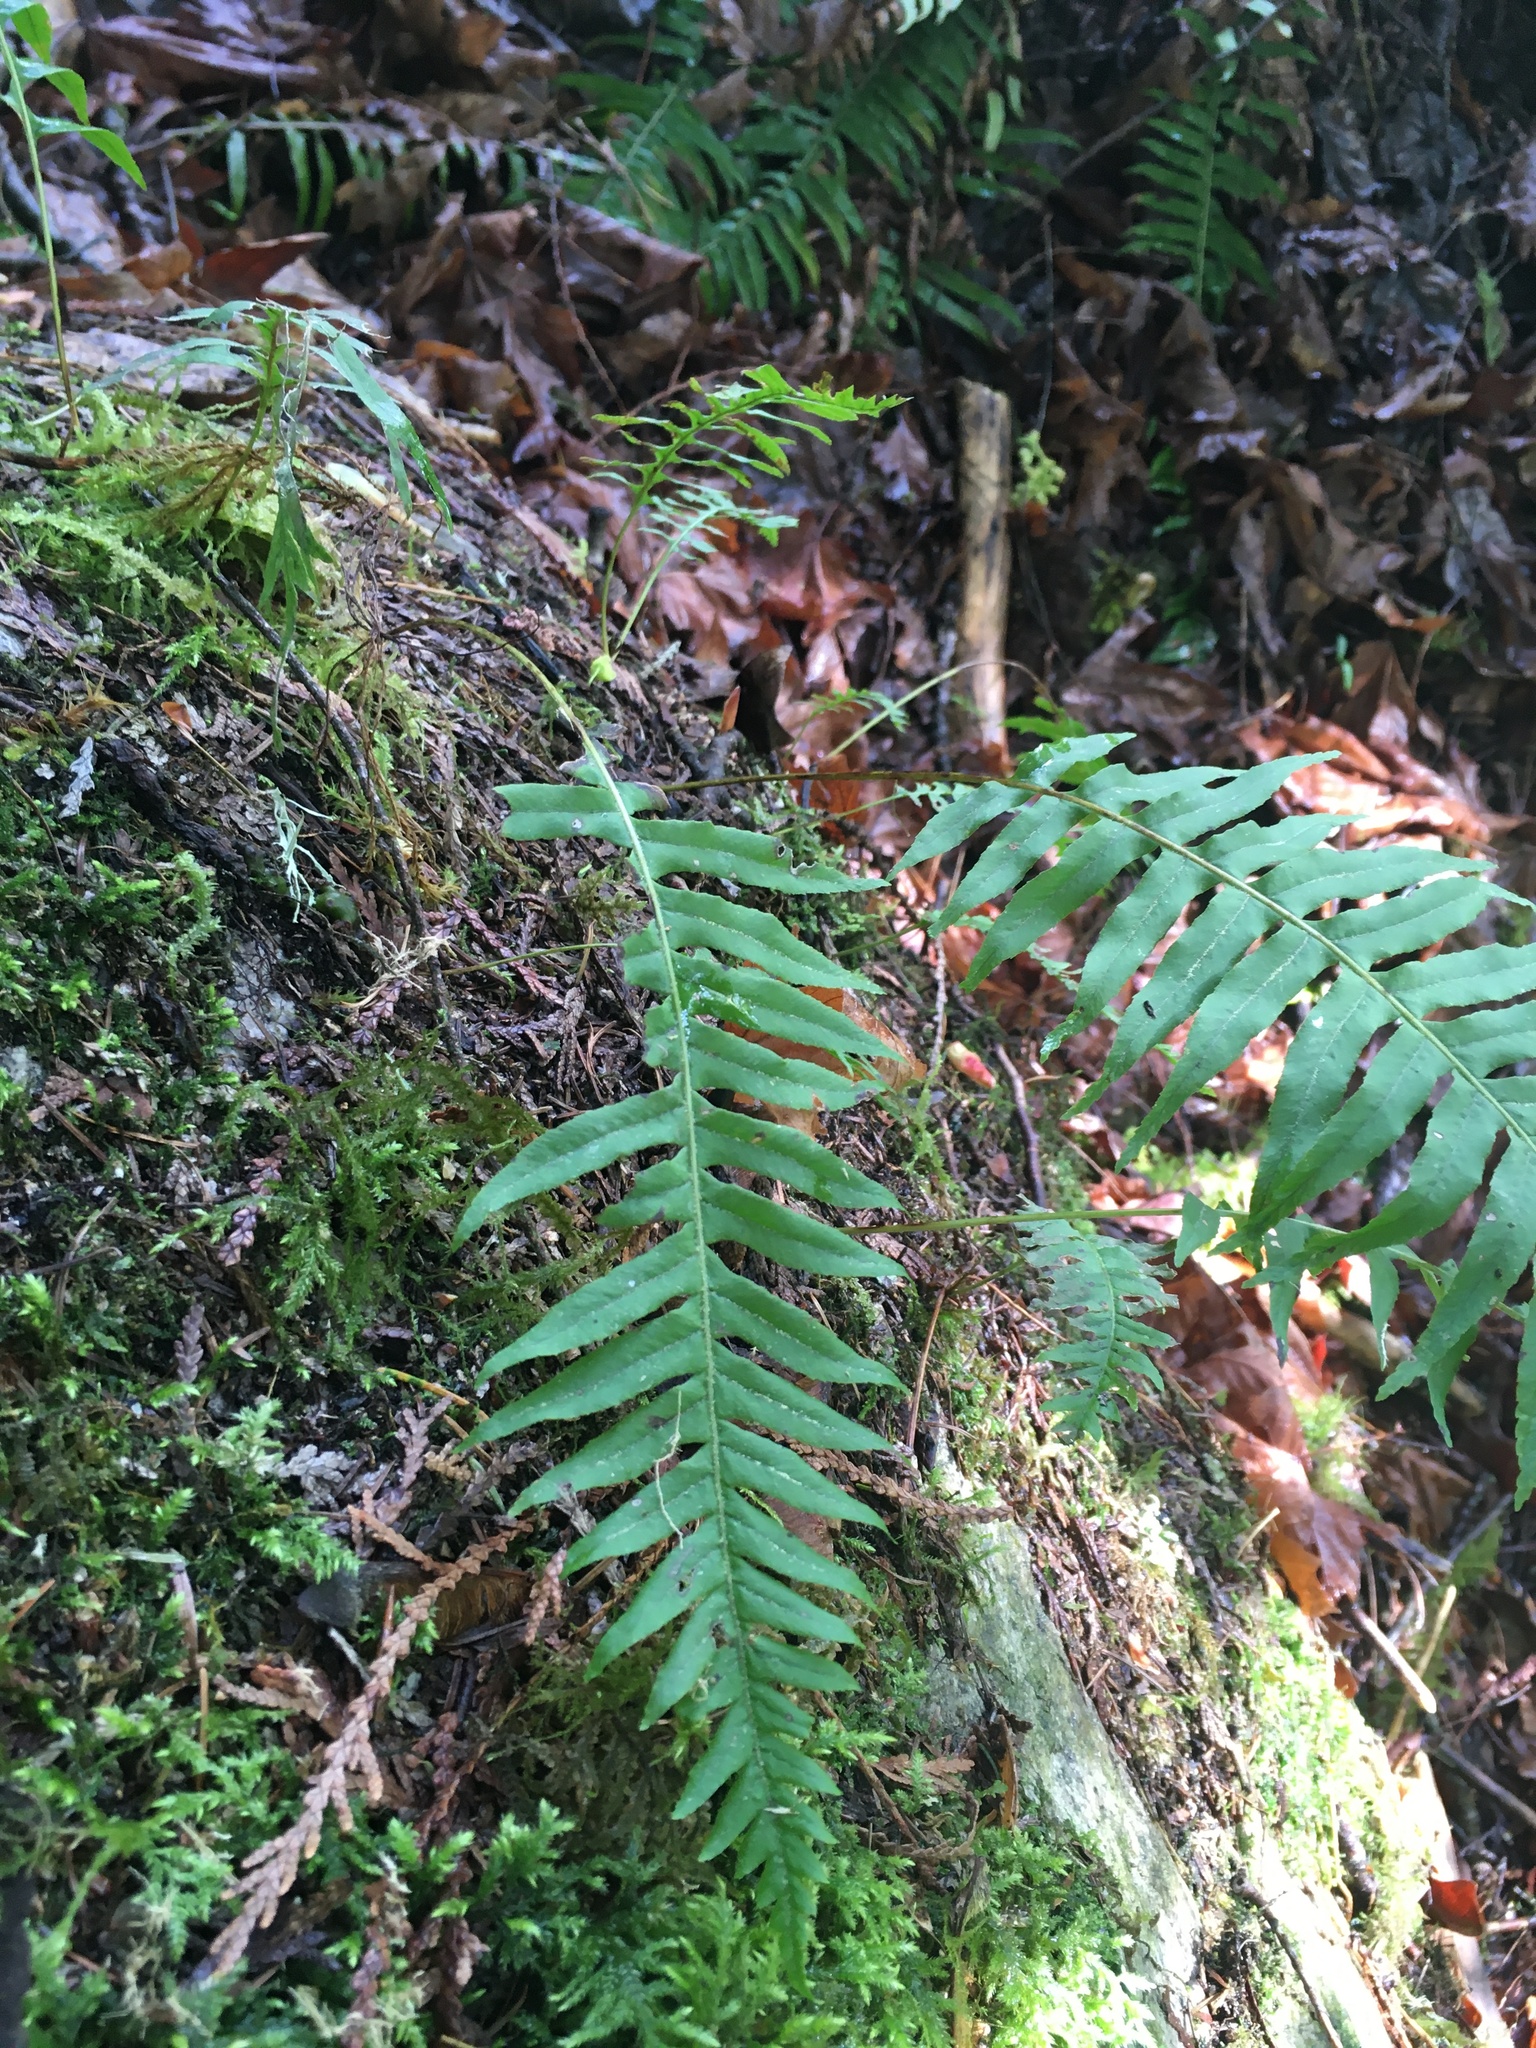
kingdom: Plantae
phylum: Tracheophyta
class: Polypodiopsida
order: Polypodiales
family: Polypodiaceae
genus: Polypodium
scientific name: Polypodium glycyrrhiza
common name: Licorice fern
